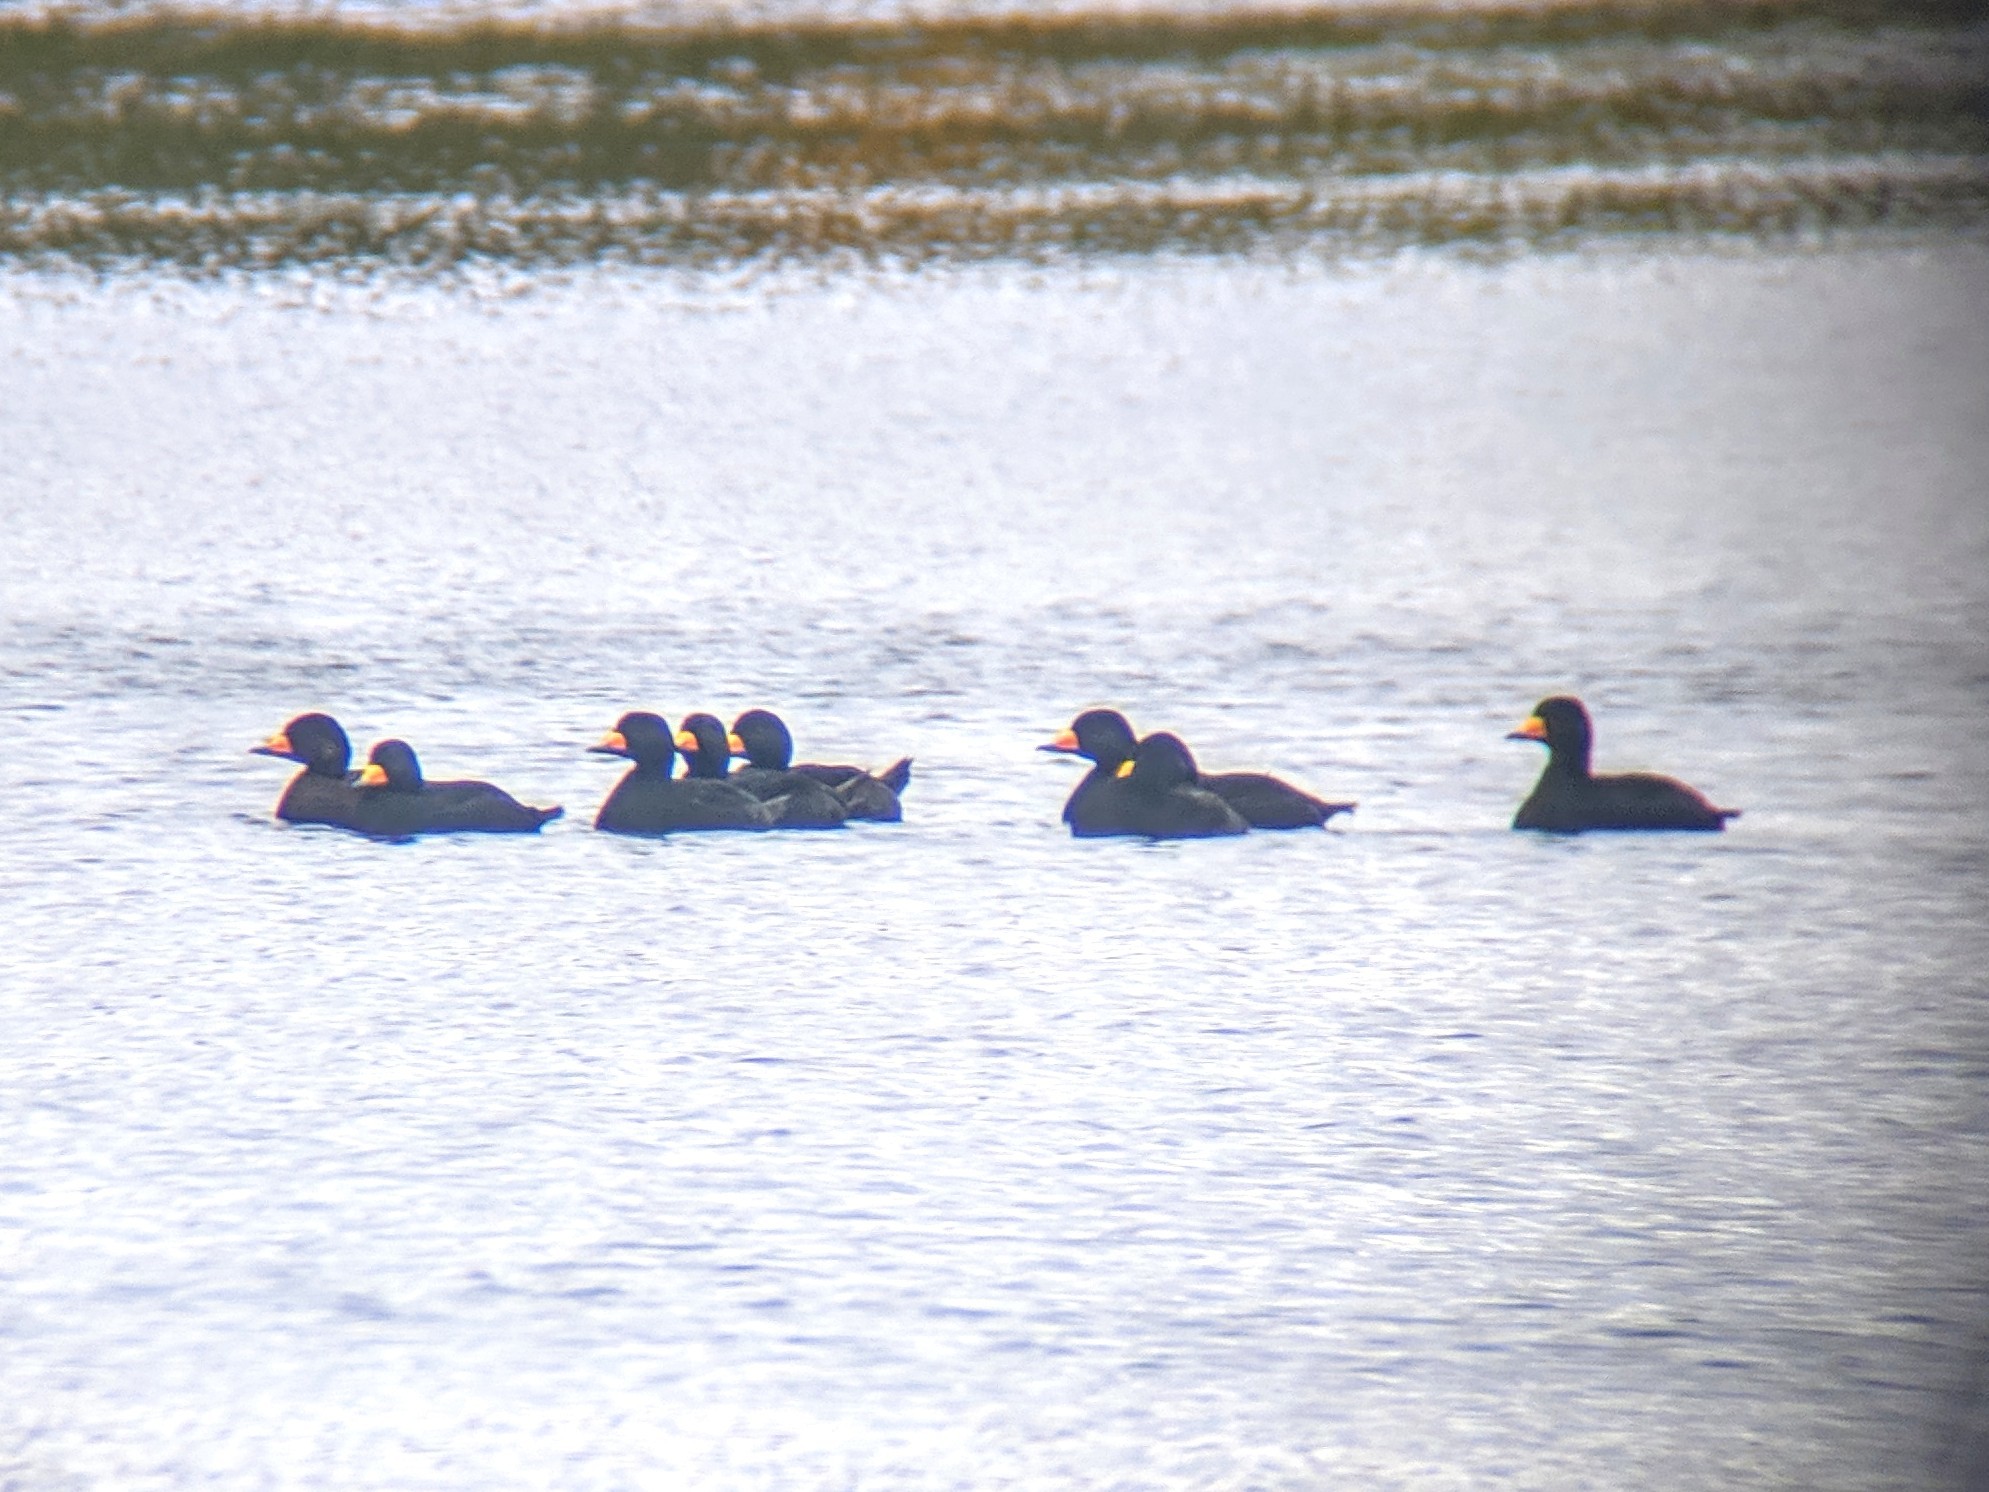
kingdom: Animalia
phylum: Chordata
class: Aves
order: Anseriformes
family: Anatidae
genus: Melanitta
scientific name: Melanitta americana
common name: Black scoter
